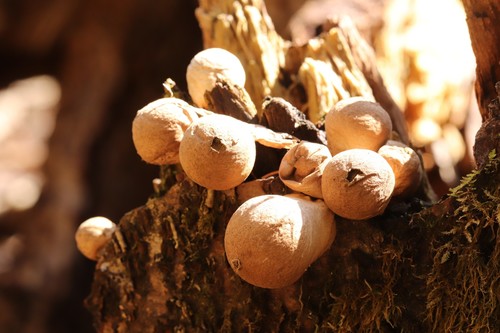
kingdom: Fungi
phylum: Basidiomycota
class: Agaricomycetes
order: Agaricales
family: Lycoperdaceae
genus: Apioperdon
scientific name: Apioperdon pyriforme
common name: Pear-shaped puffball
